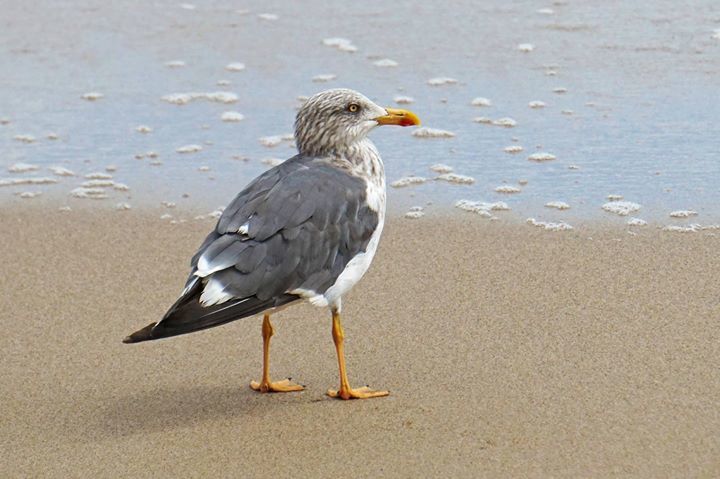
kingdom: Animalia
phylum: Chordata
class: Aves
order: Charadriiformes
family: Laridae
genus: Larus
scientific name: Larus fuscus
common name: Lesser black-backed gull
